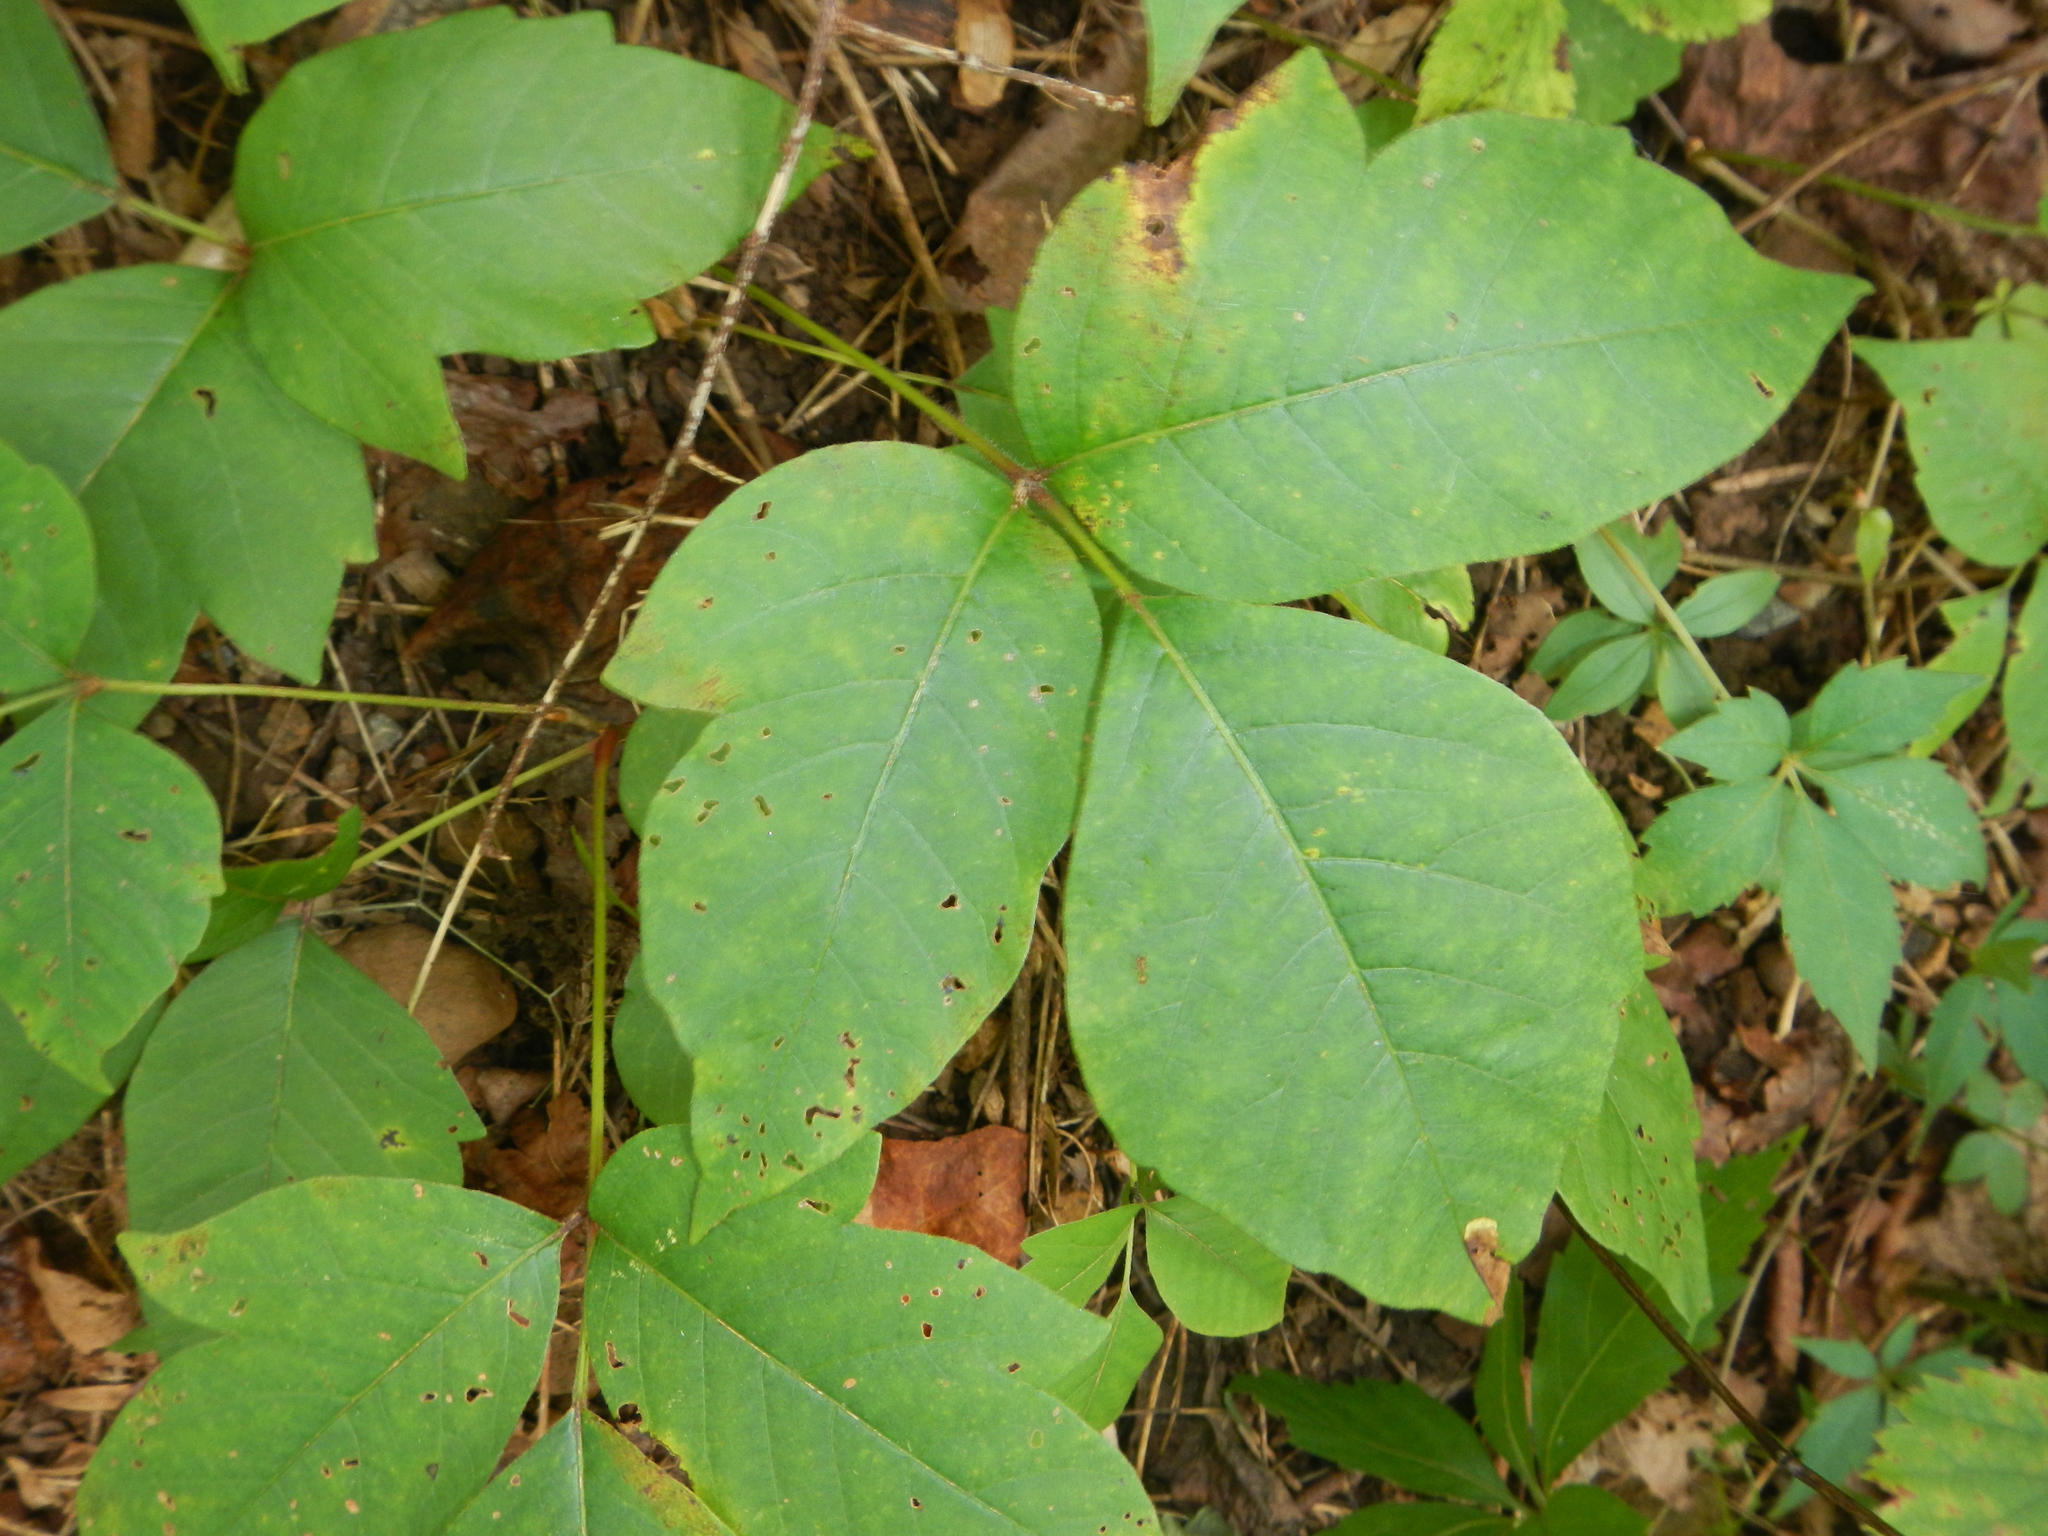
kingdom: Plantae
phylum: Tracheophyta
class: Magnoliopsida
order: Sapindales
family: Anacardiaceae
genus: Toxicodendron
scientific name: Toxicodendron radicans
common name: Poison ivy
